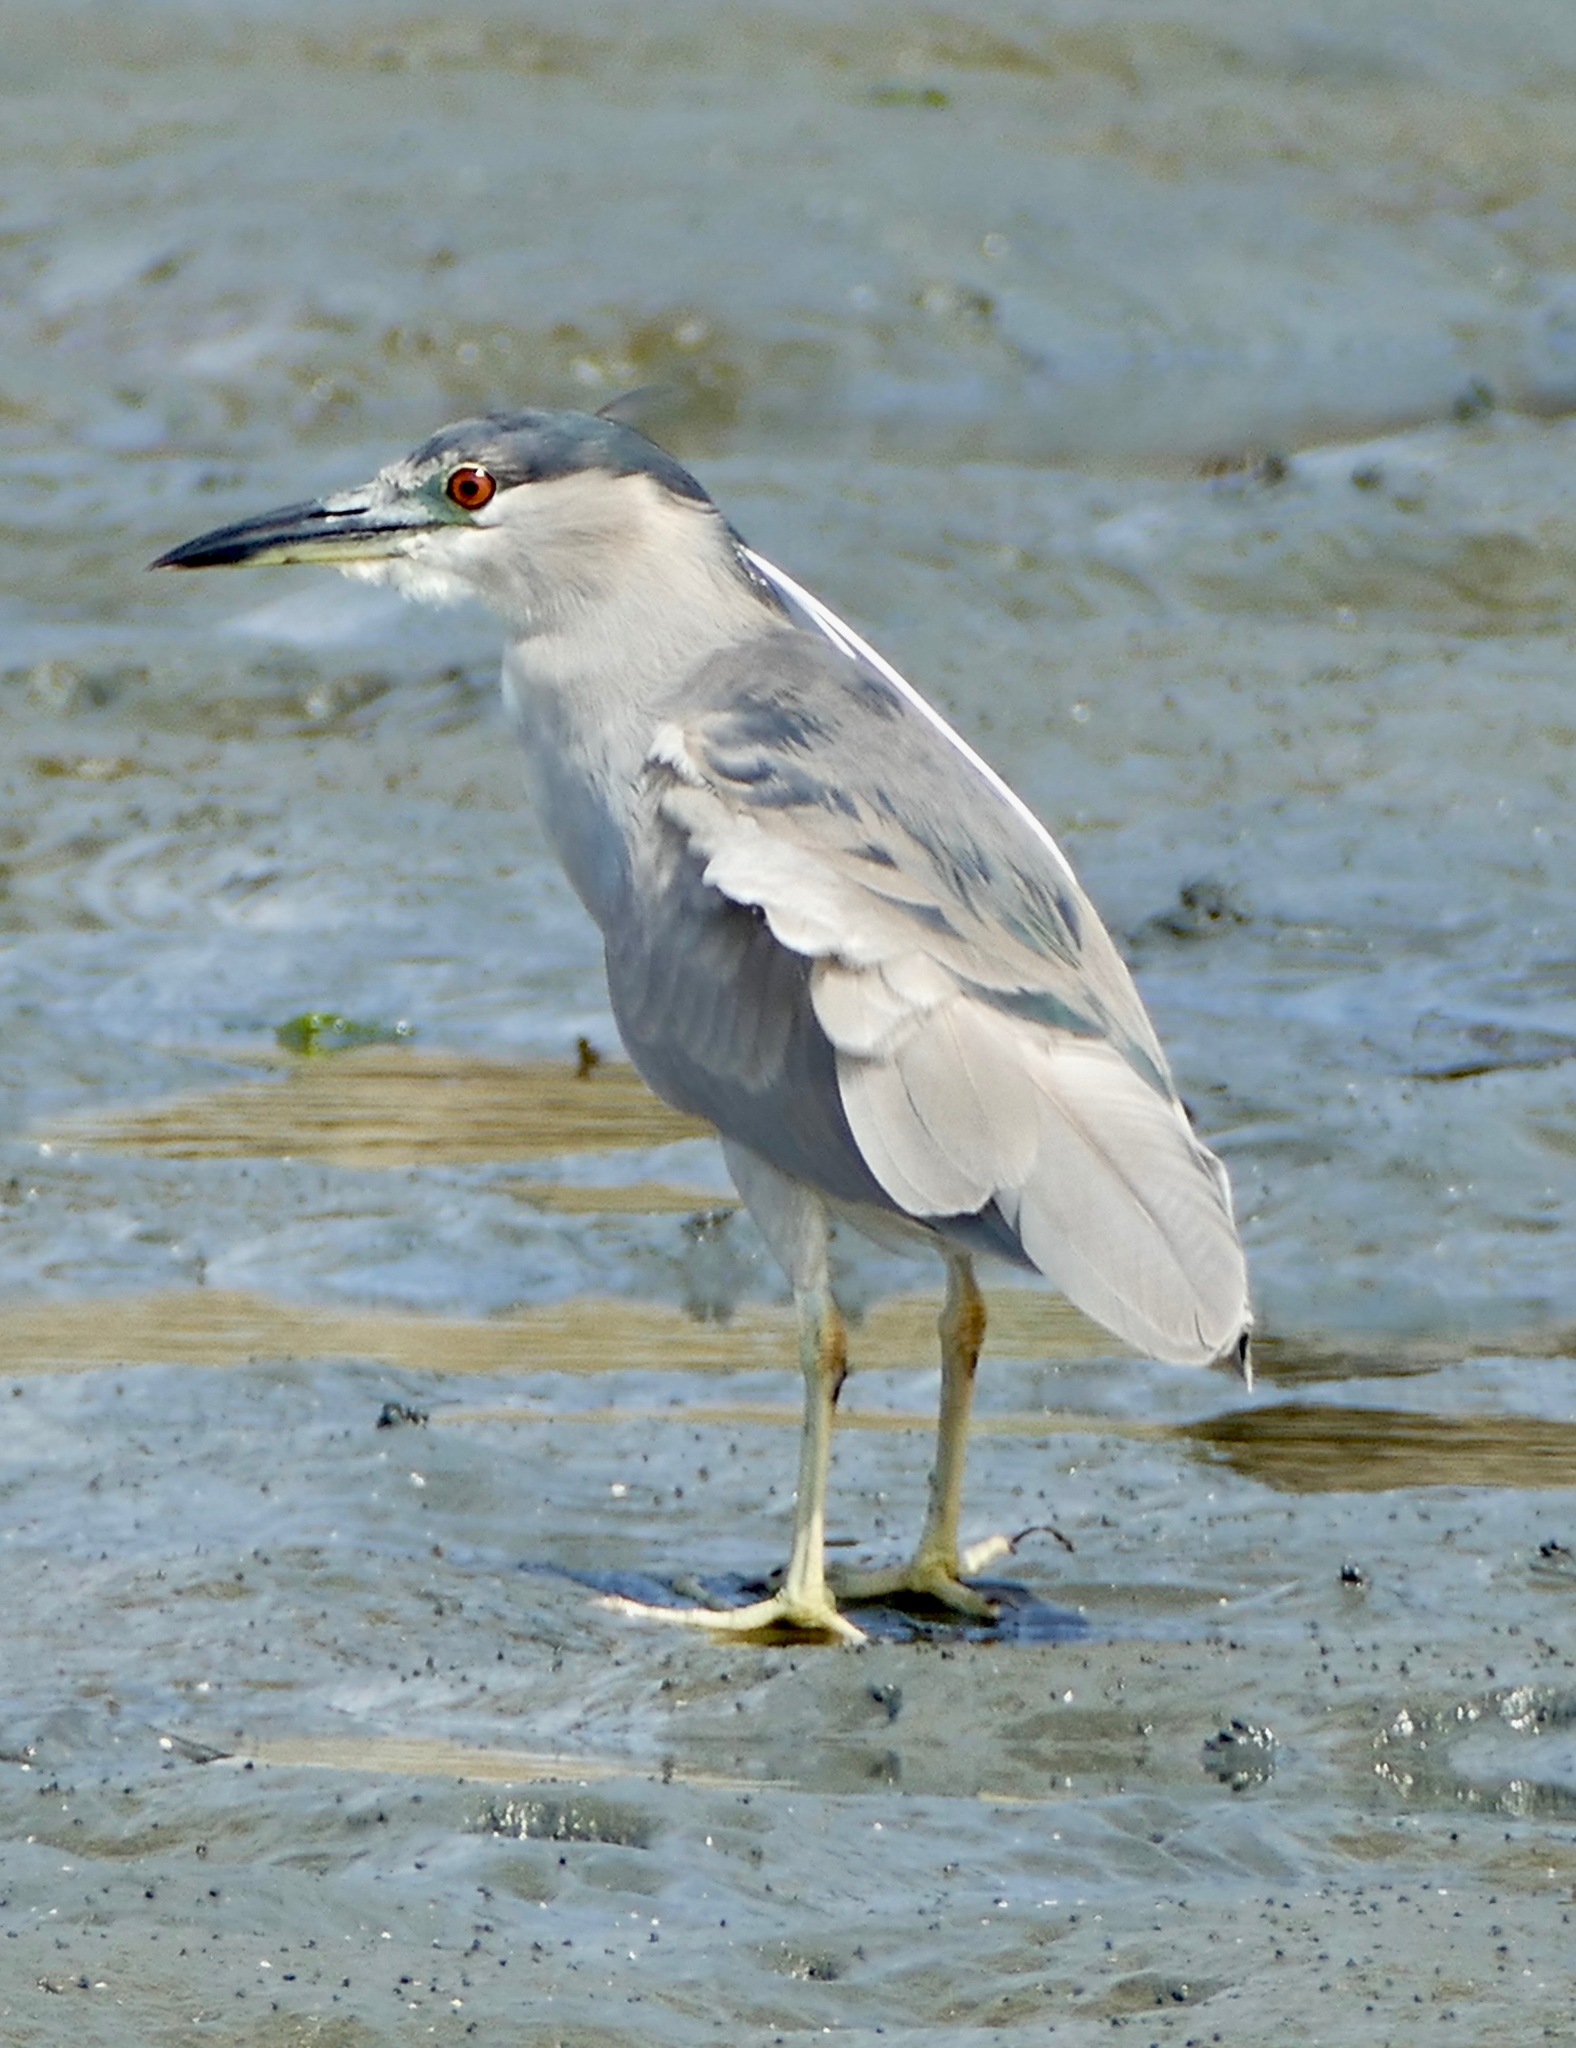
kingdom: Animalia
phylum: Chordata
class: Aves
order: Pelecaniformes
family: Ardeidae
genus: Nycticorax
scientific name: Nycticorax nycticorax
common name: Black-crowned night heron
